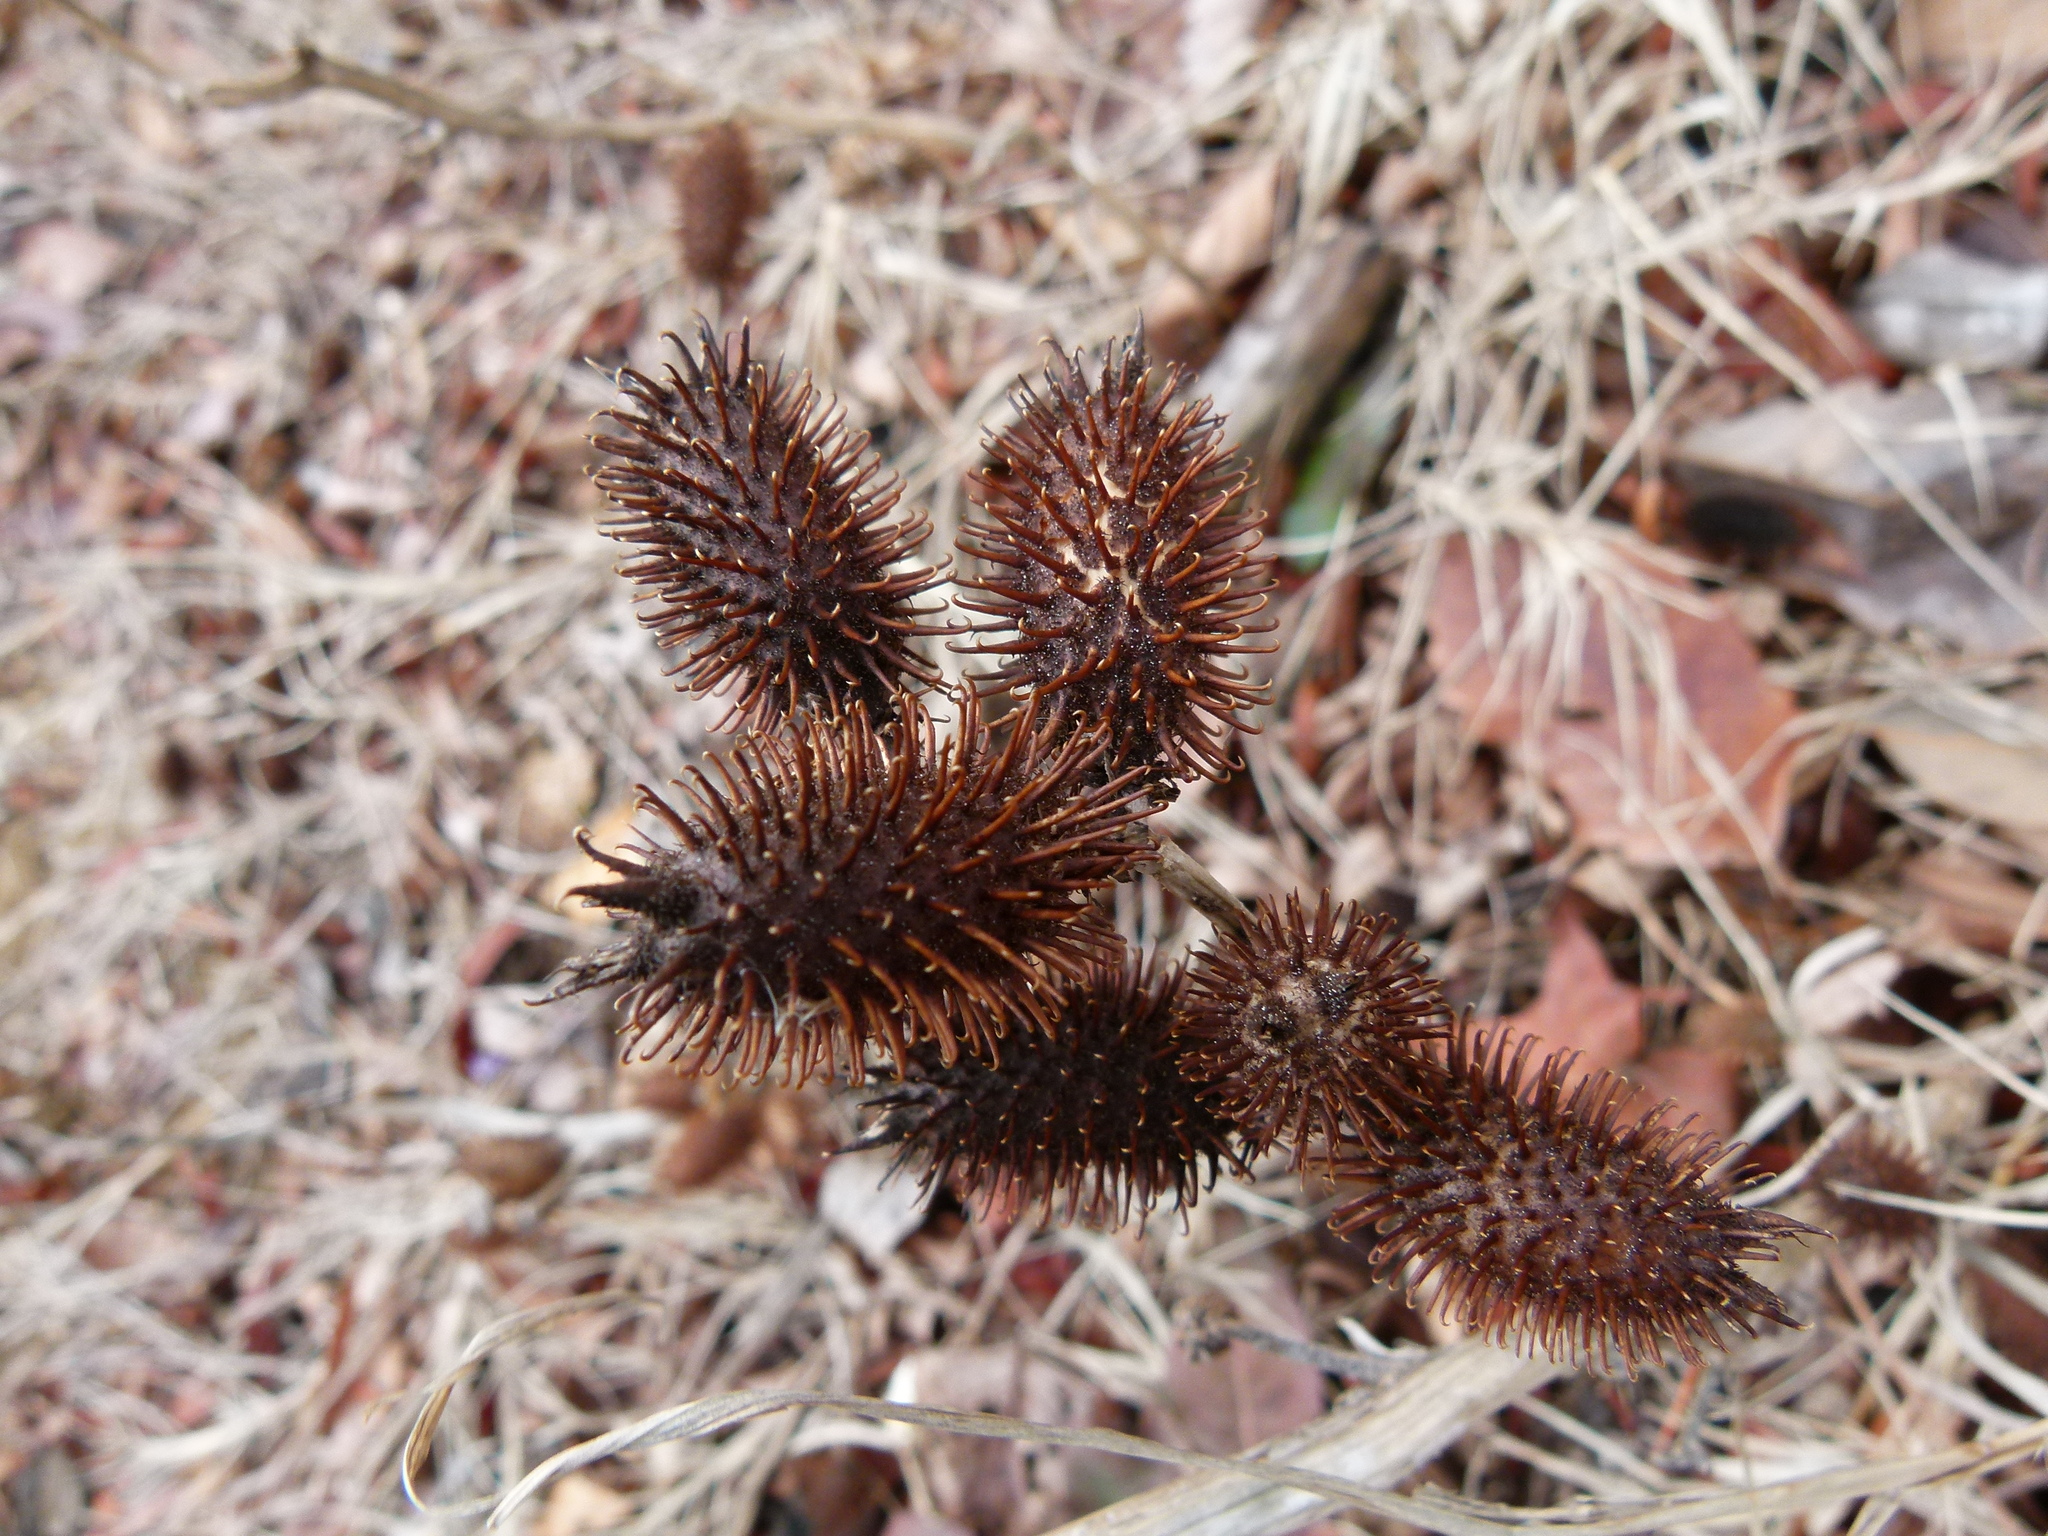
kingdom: Plantae
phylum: Tracheophyta
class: Magnoliopsida
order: Asterales
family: Asteraceae
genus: Xanthium
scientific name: Xanthium strumarium
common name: Rough cocklebur
